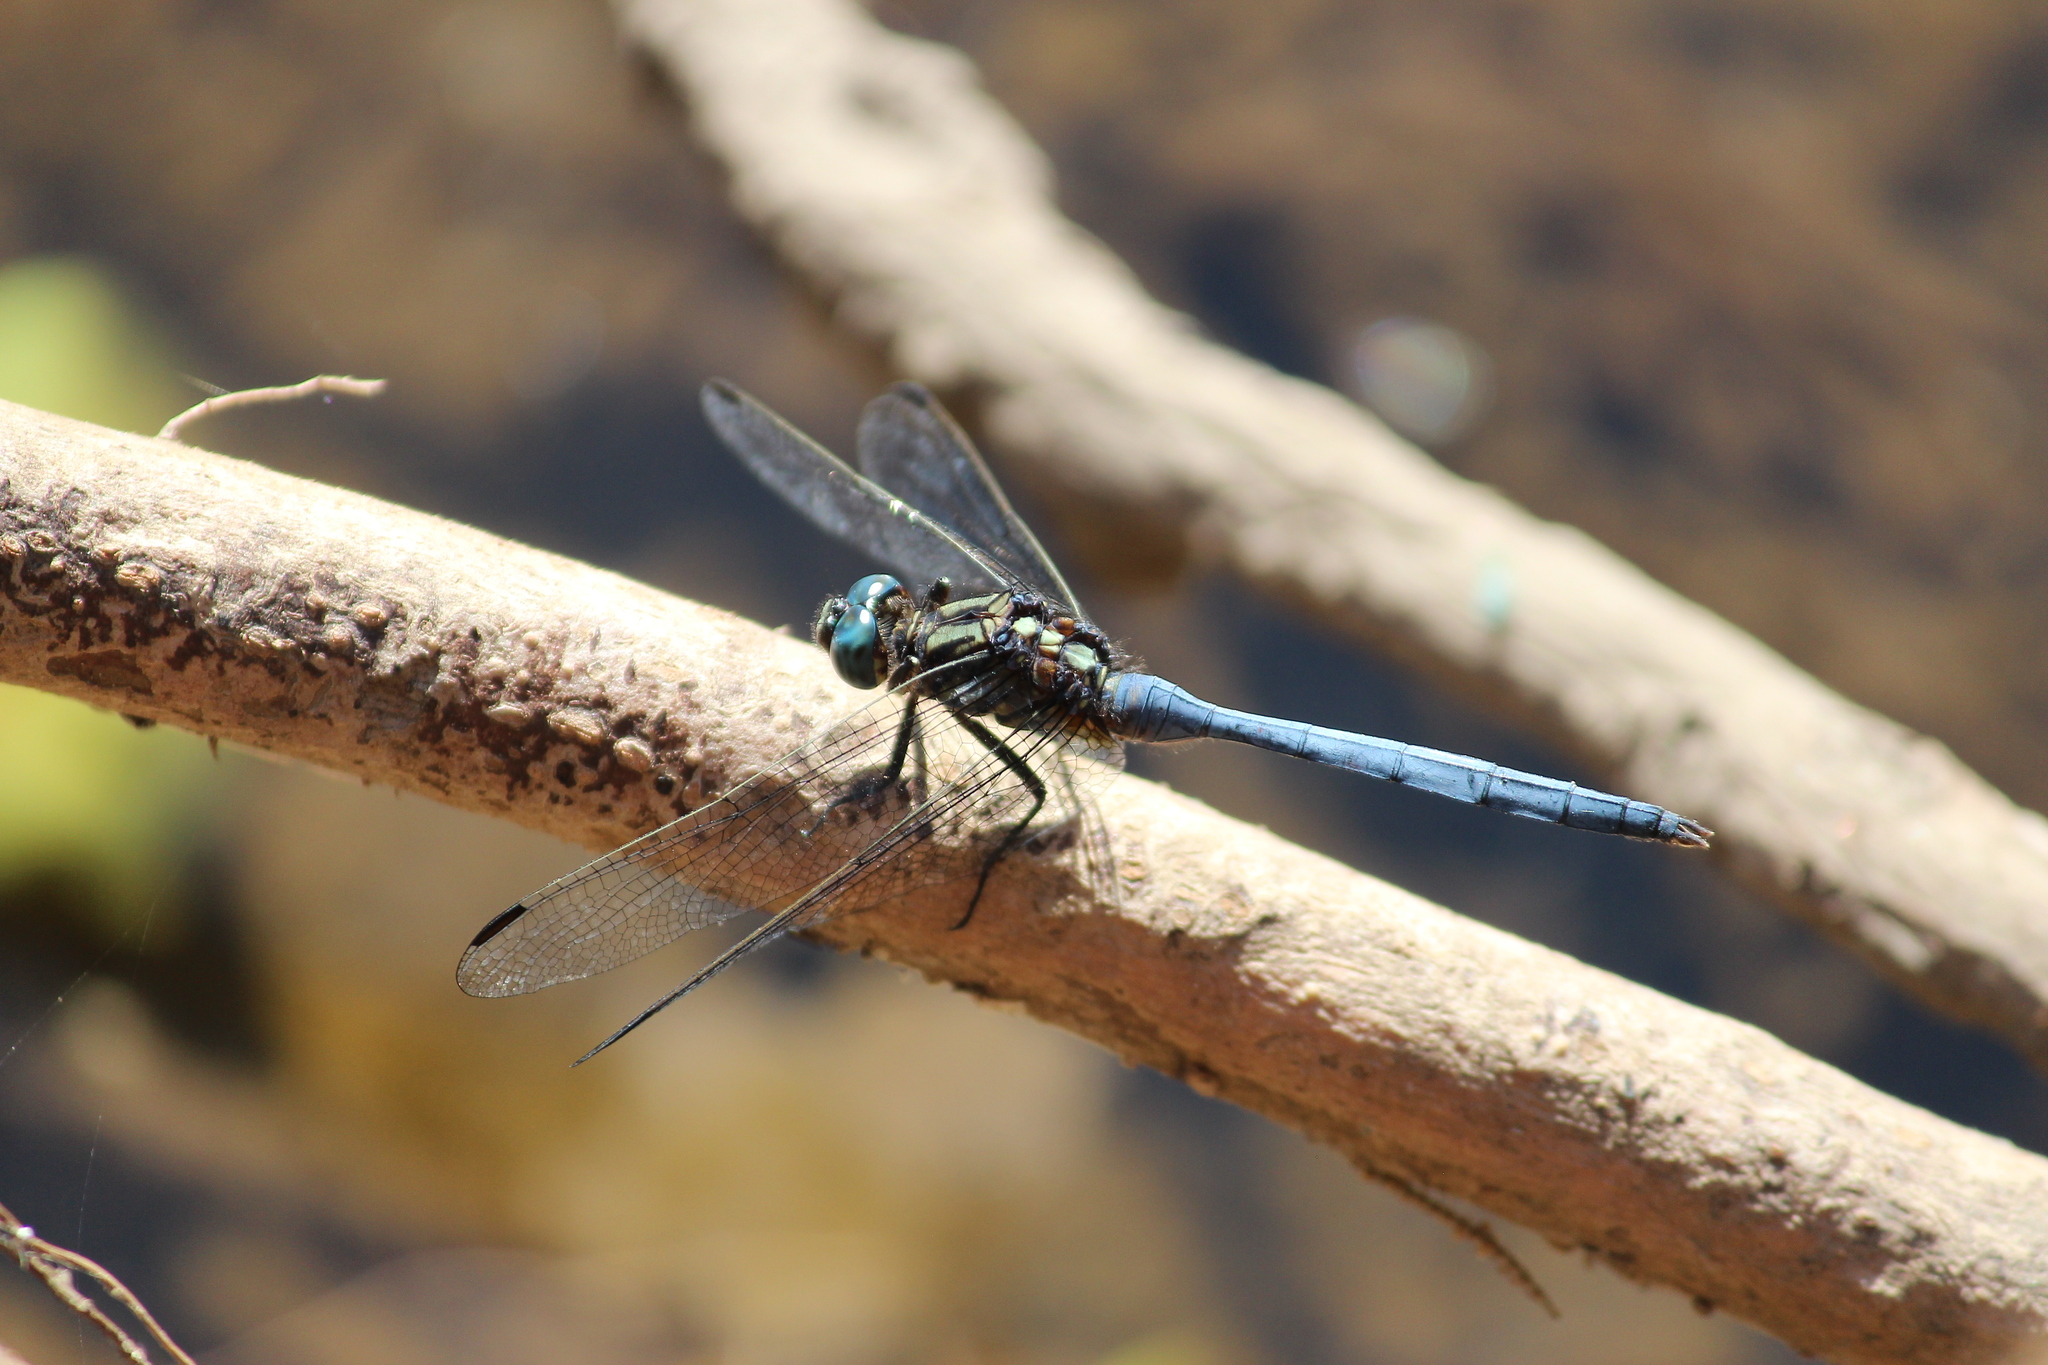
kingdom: Animalia
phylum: Arthropoda
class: Insecta
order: Odonata
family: Libellulidae
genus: Orthetrum
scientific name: Orthetrum julia
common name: Julia skimmer
